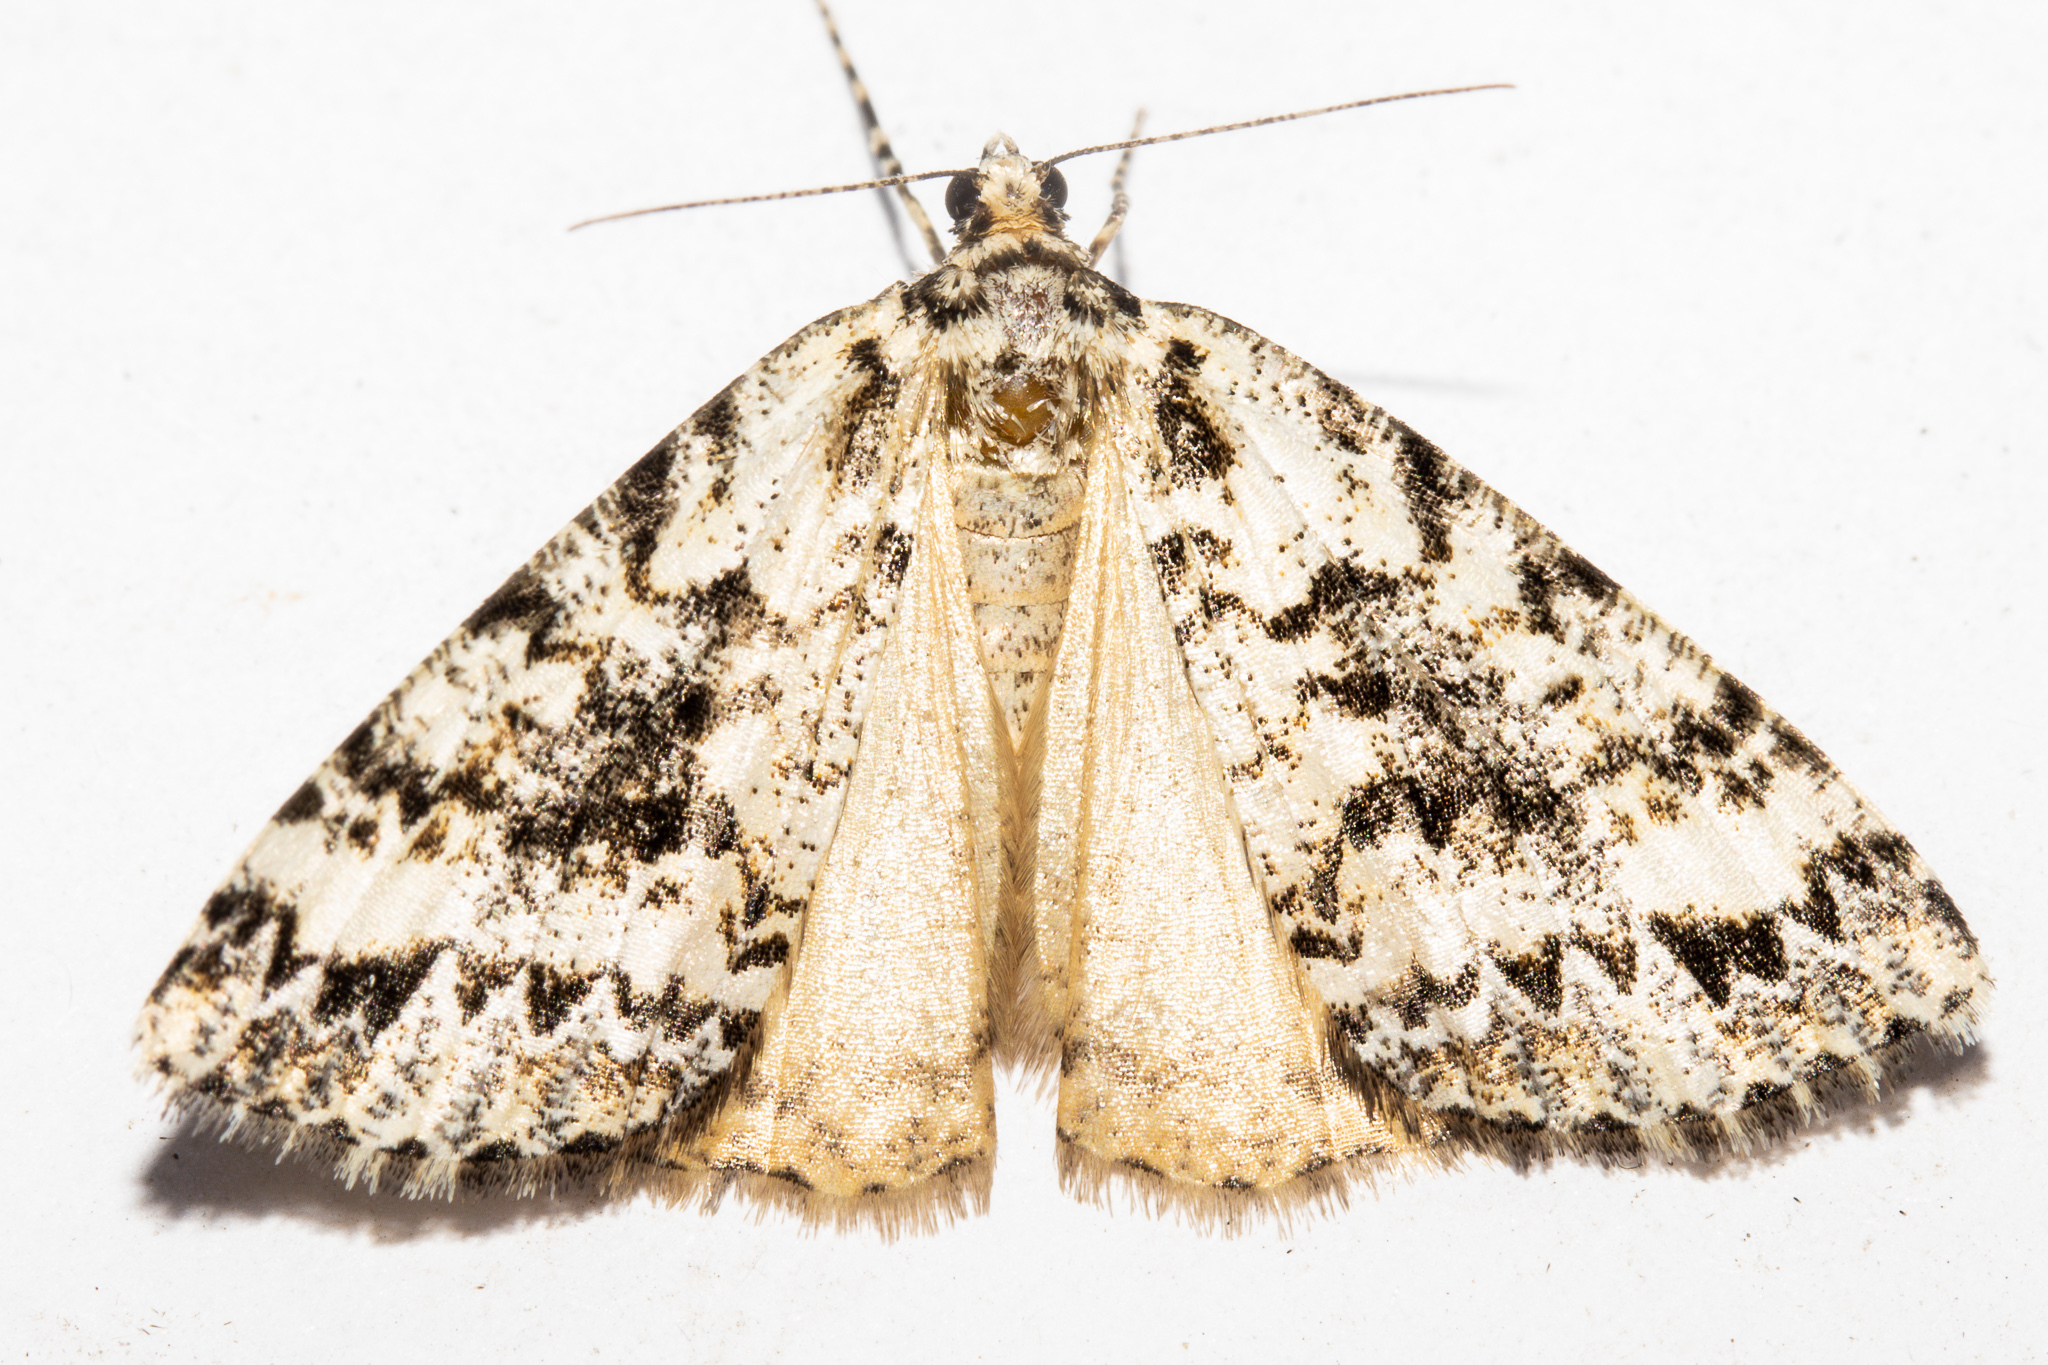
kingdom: Animalia
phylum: Arthropoda
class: Insecta
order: Lepidoptera
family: Geometridae
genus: Pseudocoremia
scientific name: Pseudocoremia leucelaea
